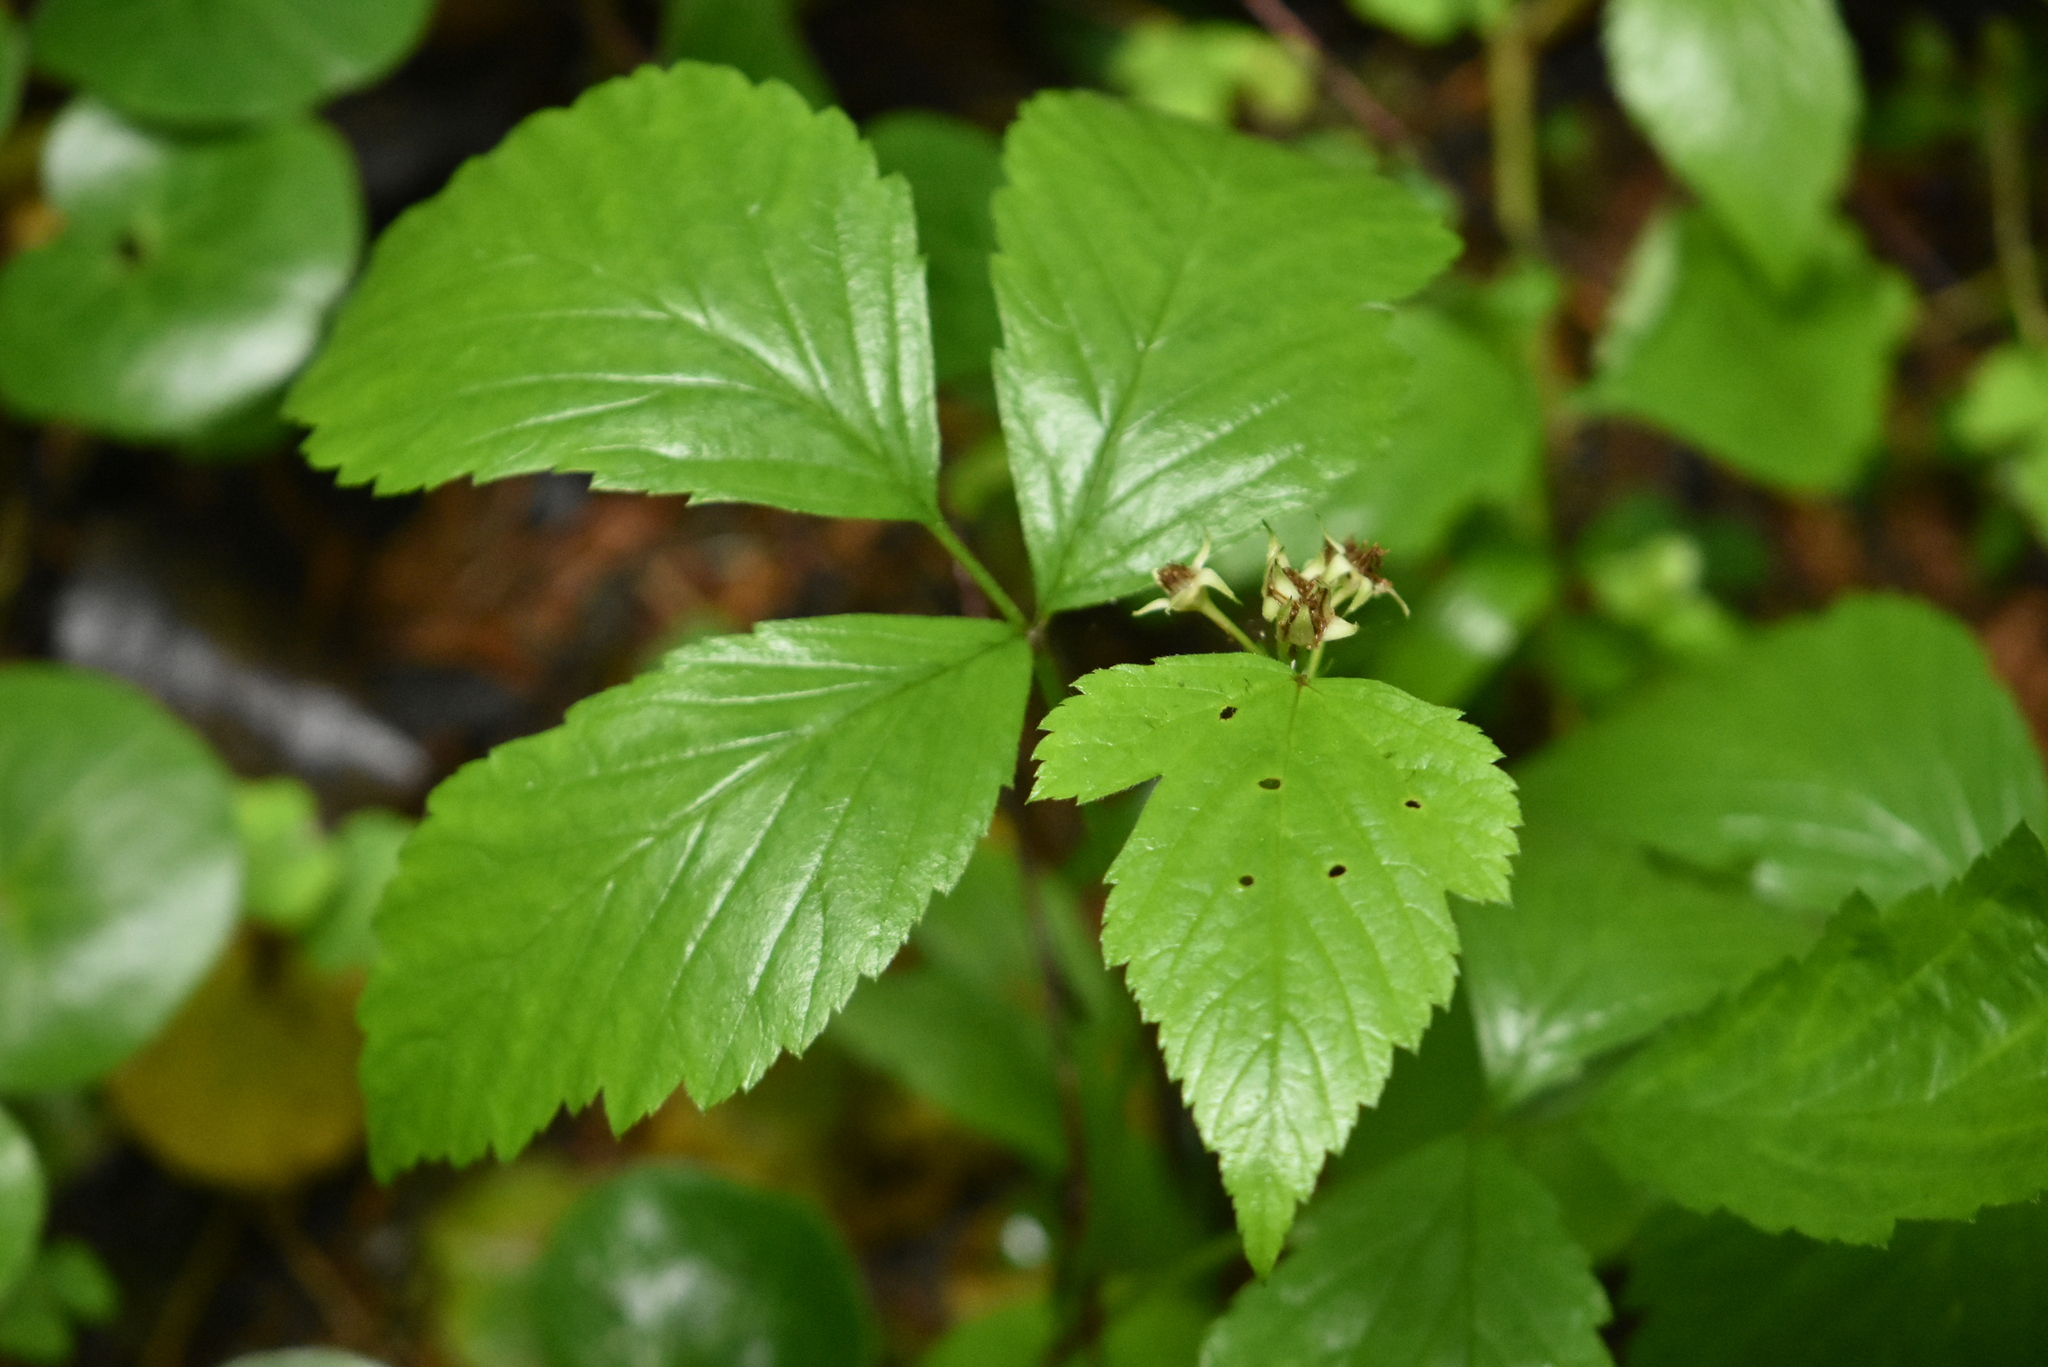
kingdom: Plantae
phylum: Tracheophyta
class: Magnoliopsida
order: Rosales
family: Rosaceae
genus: Rubus
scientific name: Rubus saxatilis
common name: Stone bramble
